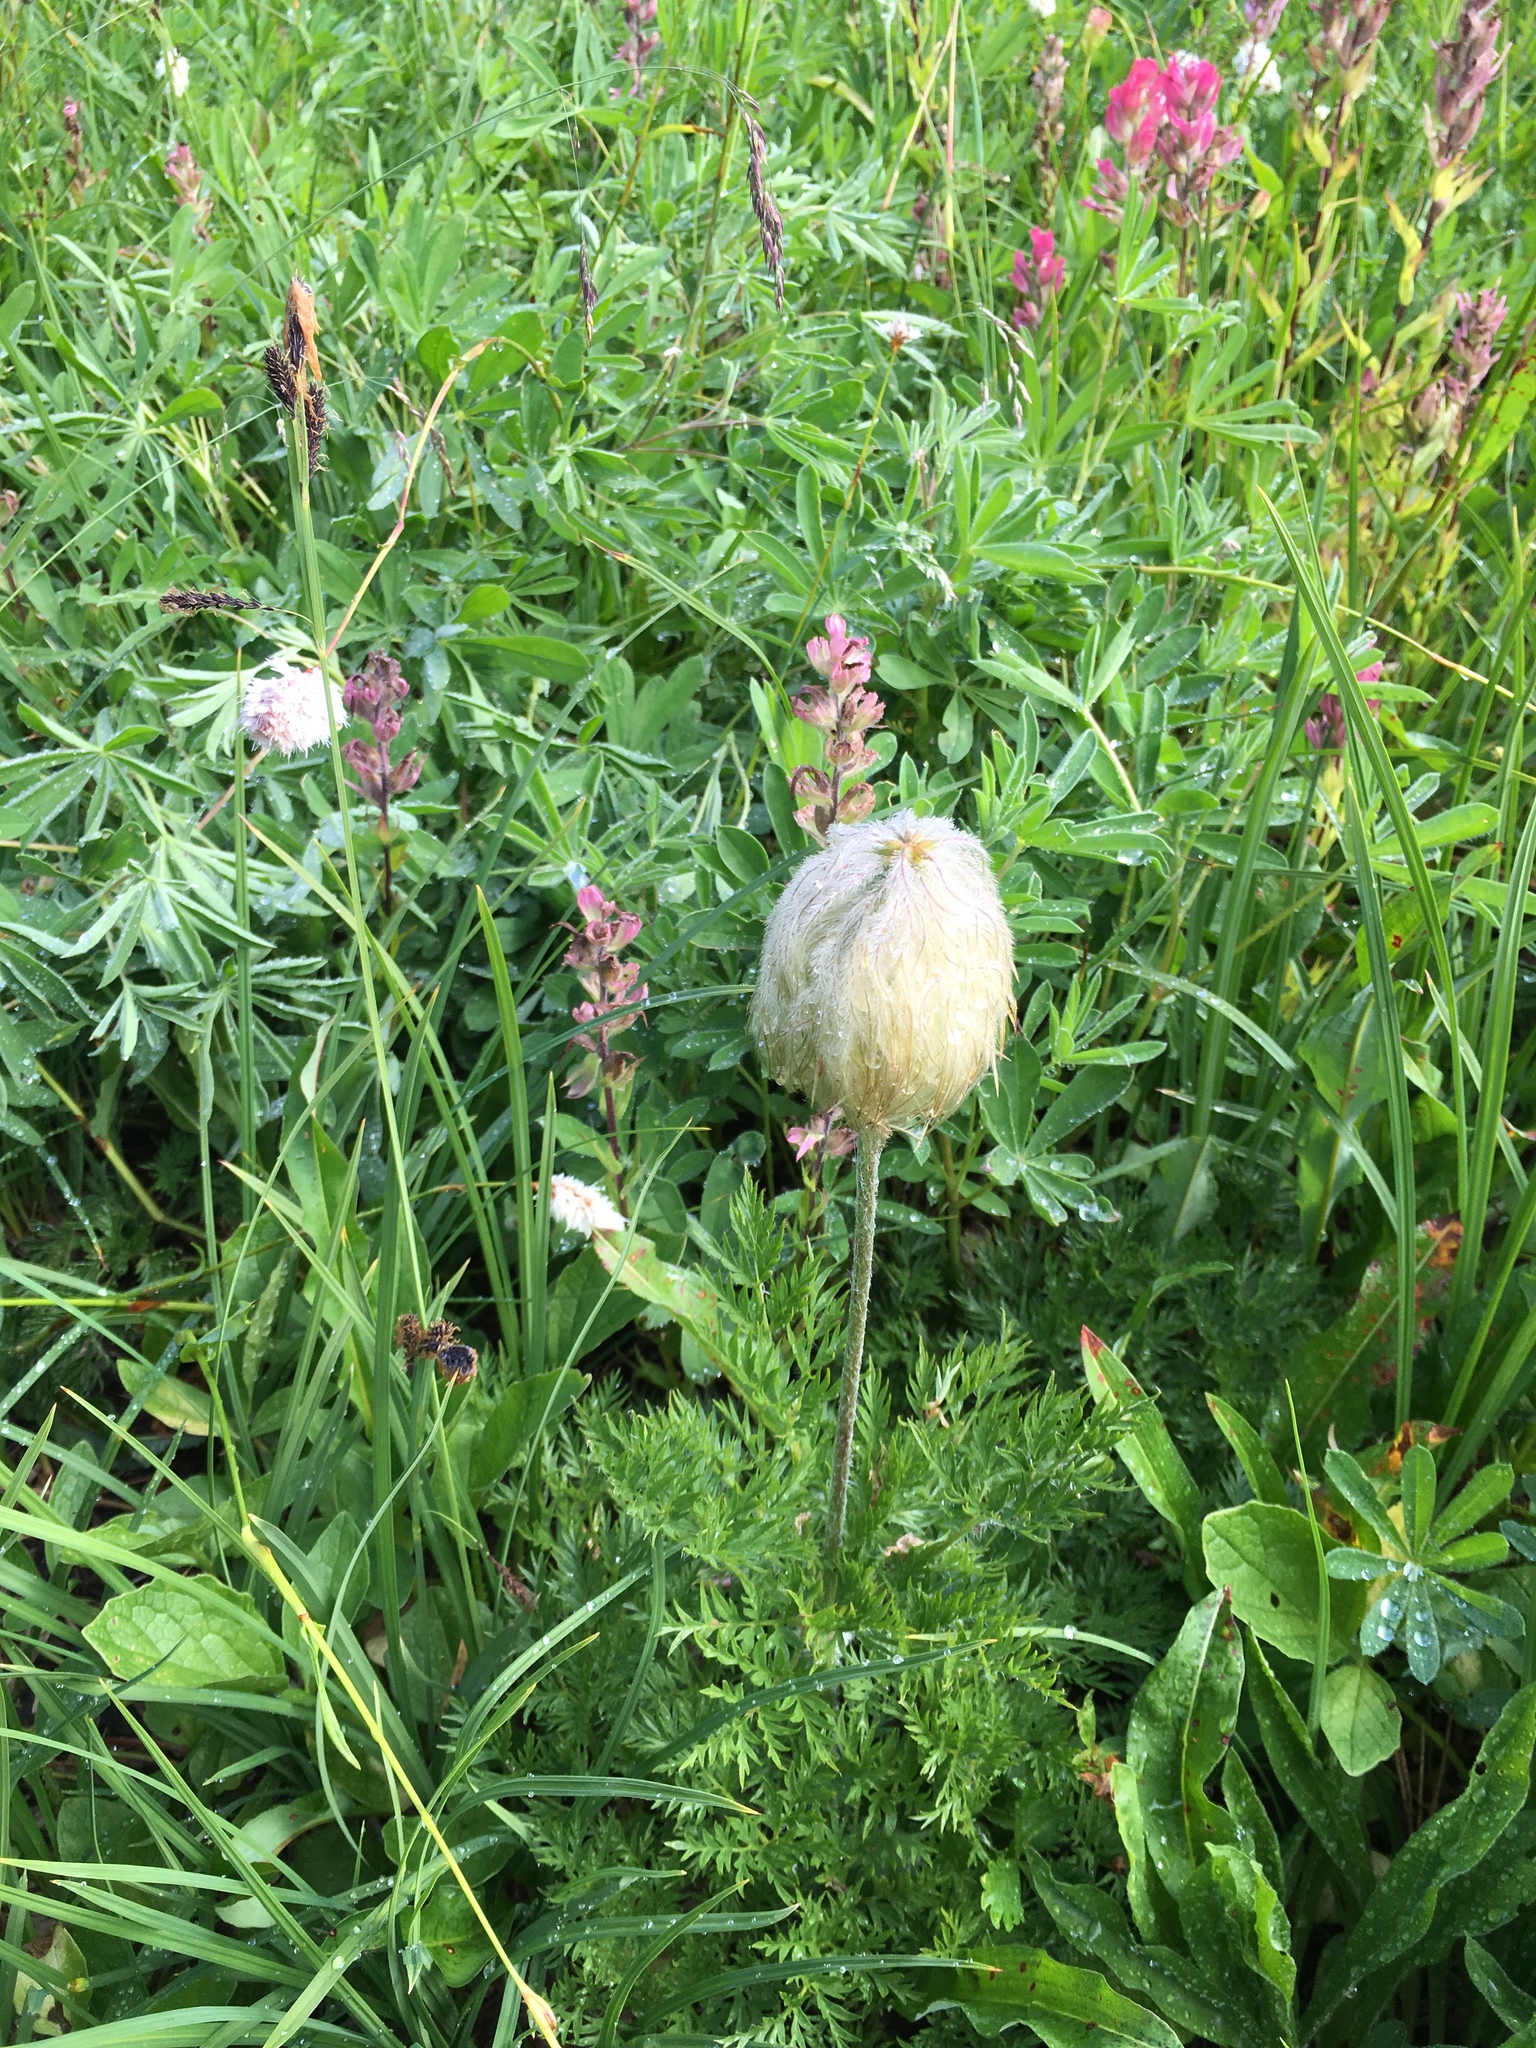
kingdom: Plantae
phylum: Tracheophyta
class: Magnoliopsida
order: Ranunculales
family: Ranunculaceae
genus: Pulsatilla
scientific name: Pulsatilla occidentalis
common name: Mountain pasqueflower
